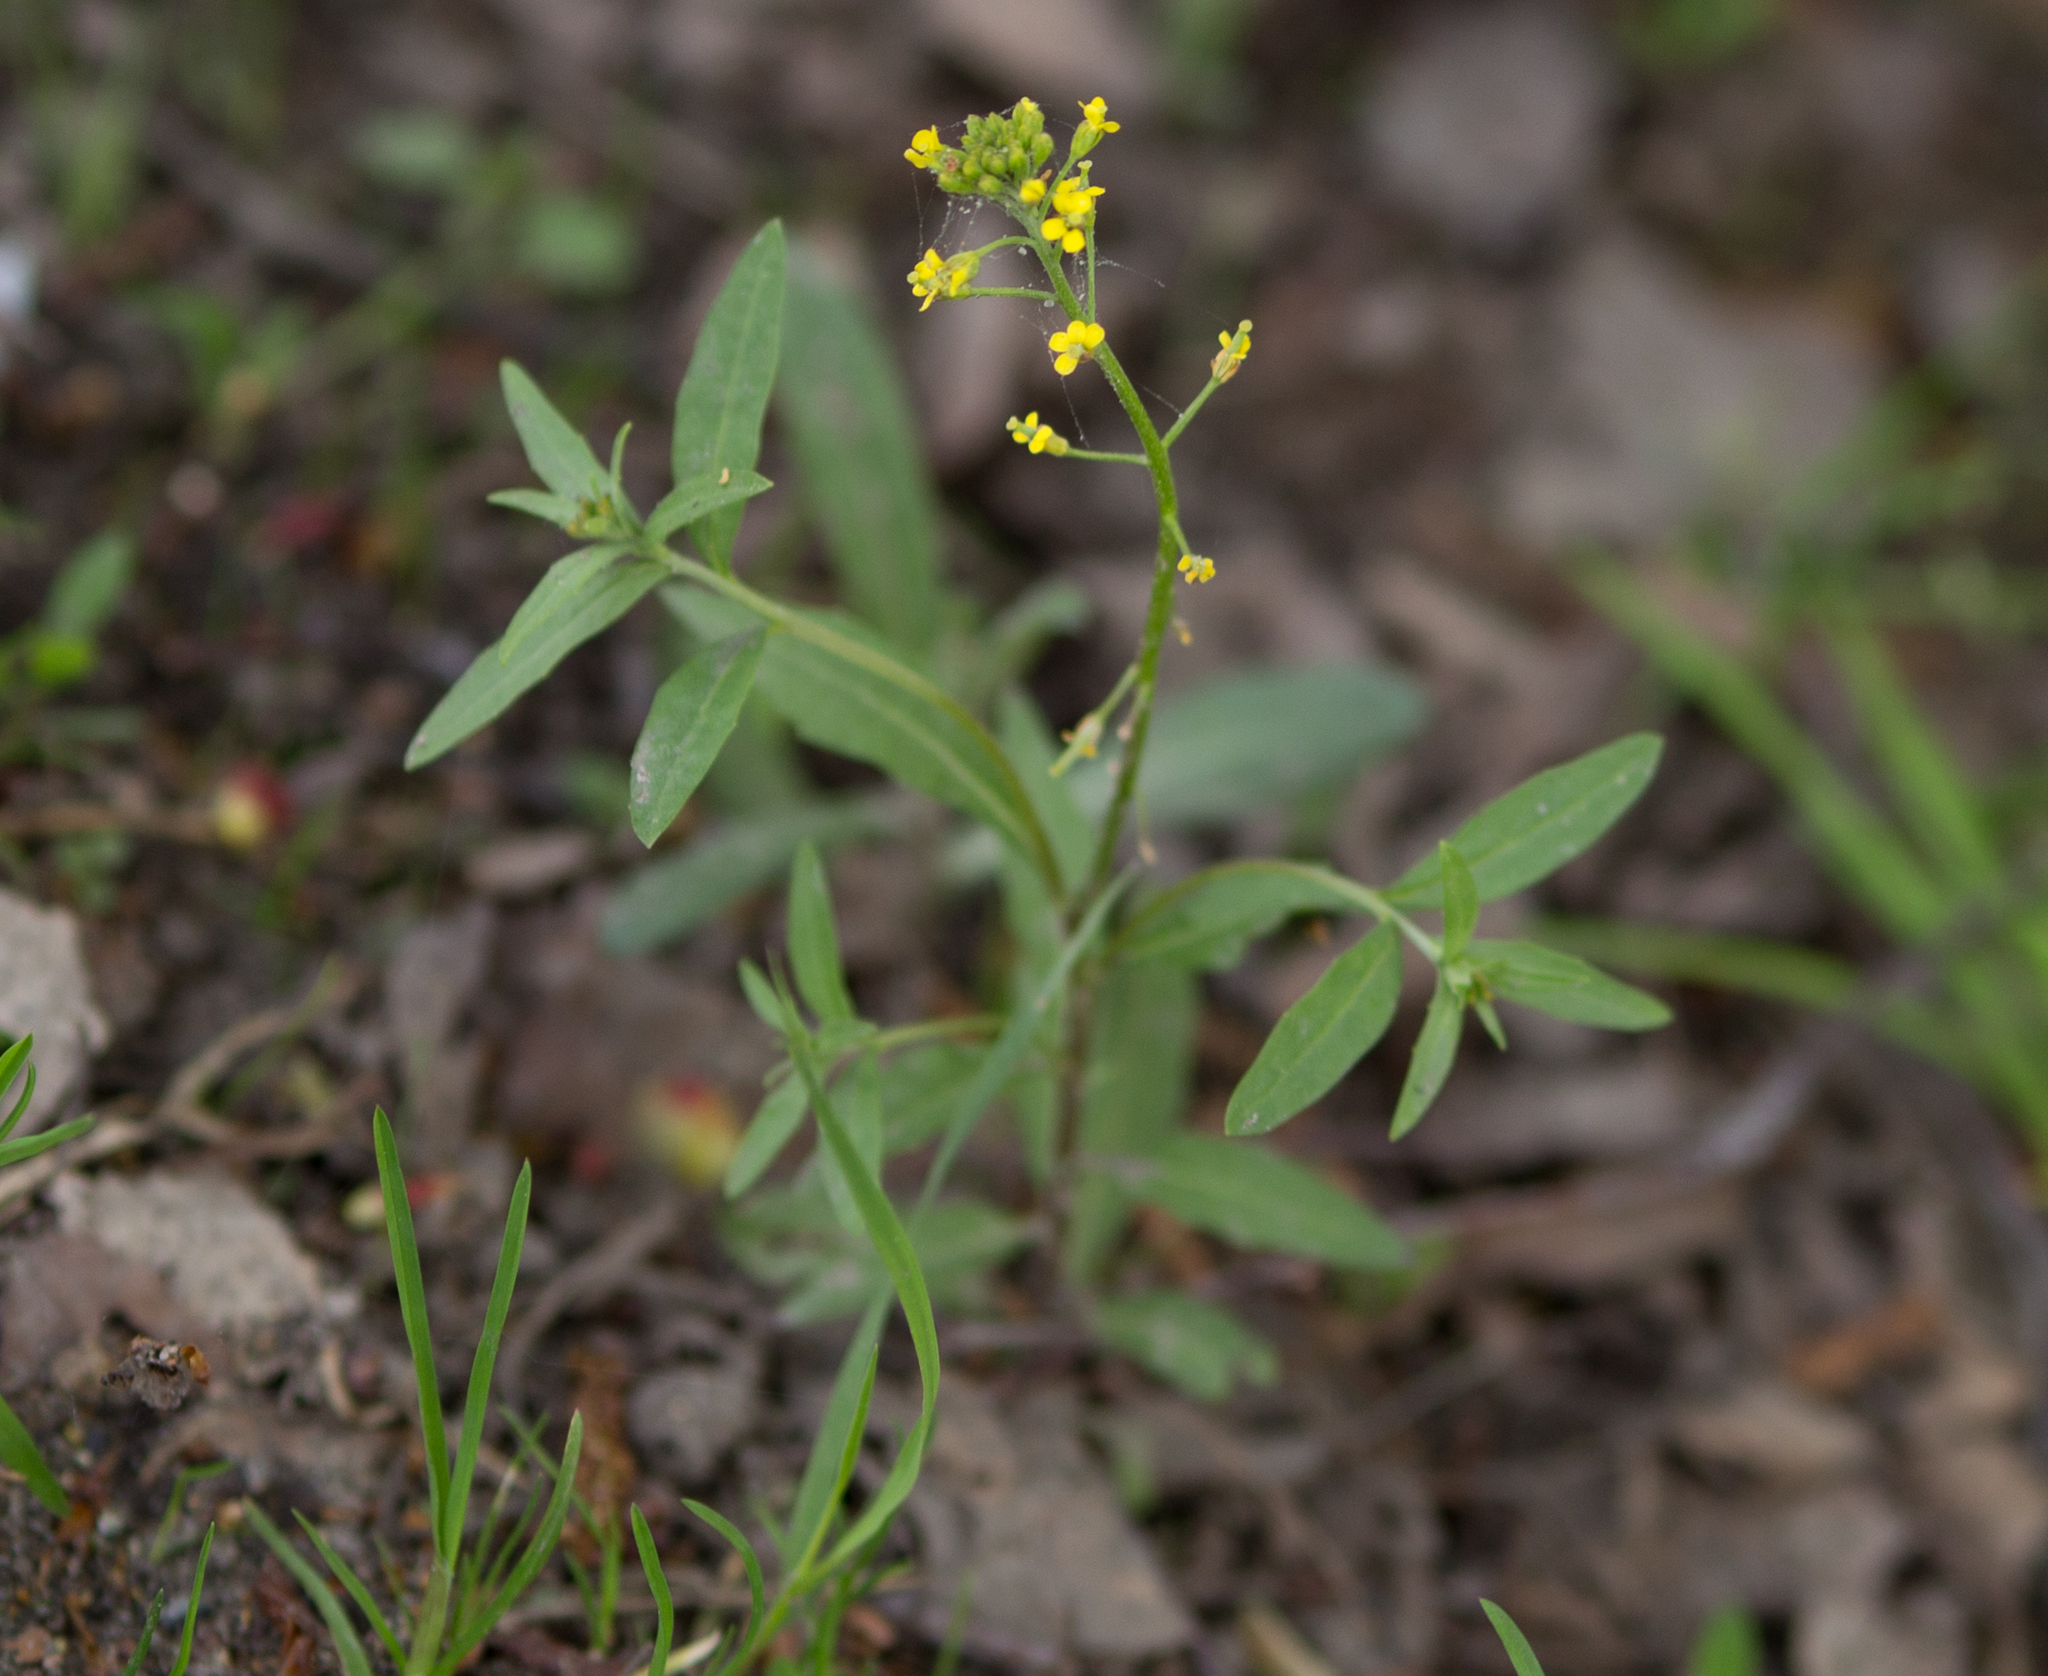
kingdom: Plantae
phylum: Tracheophyta
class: Magnoliopsida
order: Brassicales
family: Brassicaceae
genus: Erysimum
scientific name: Erysimum cheiranthoides
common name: Treacle mustard
